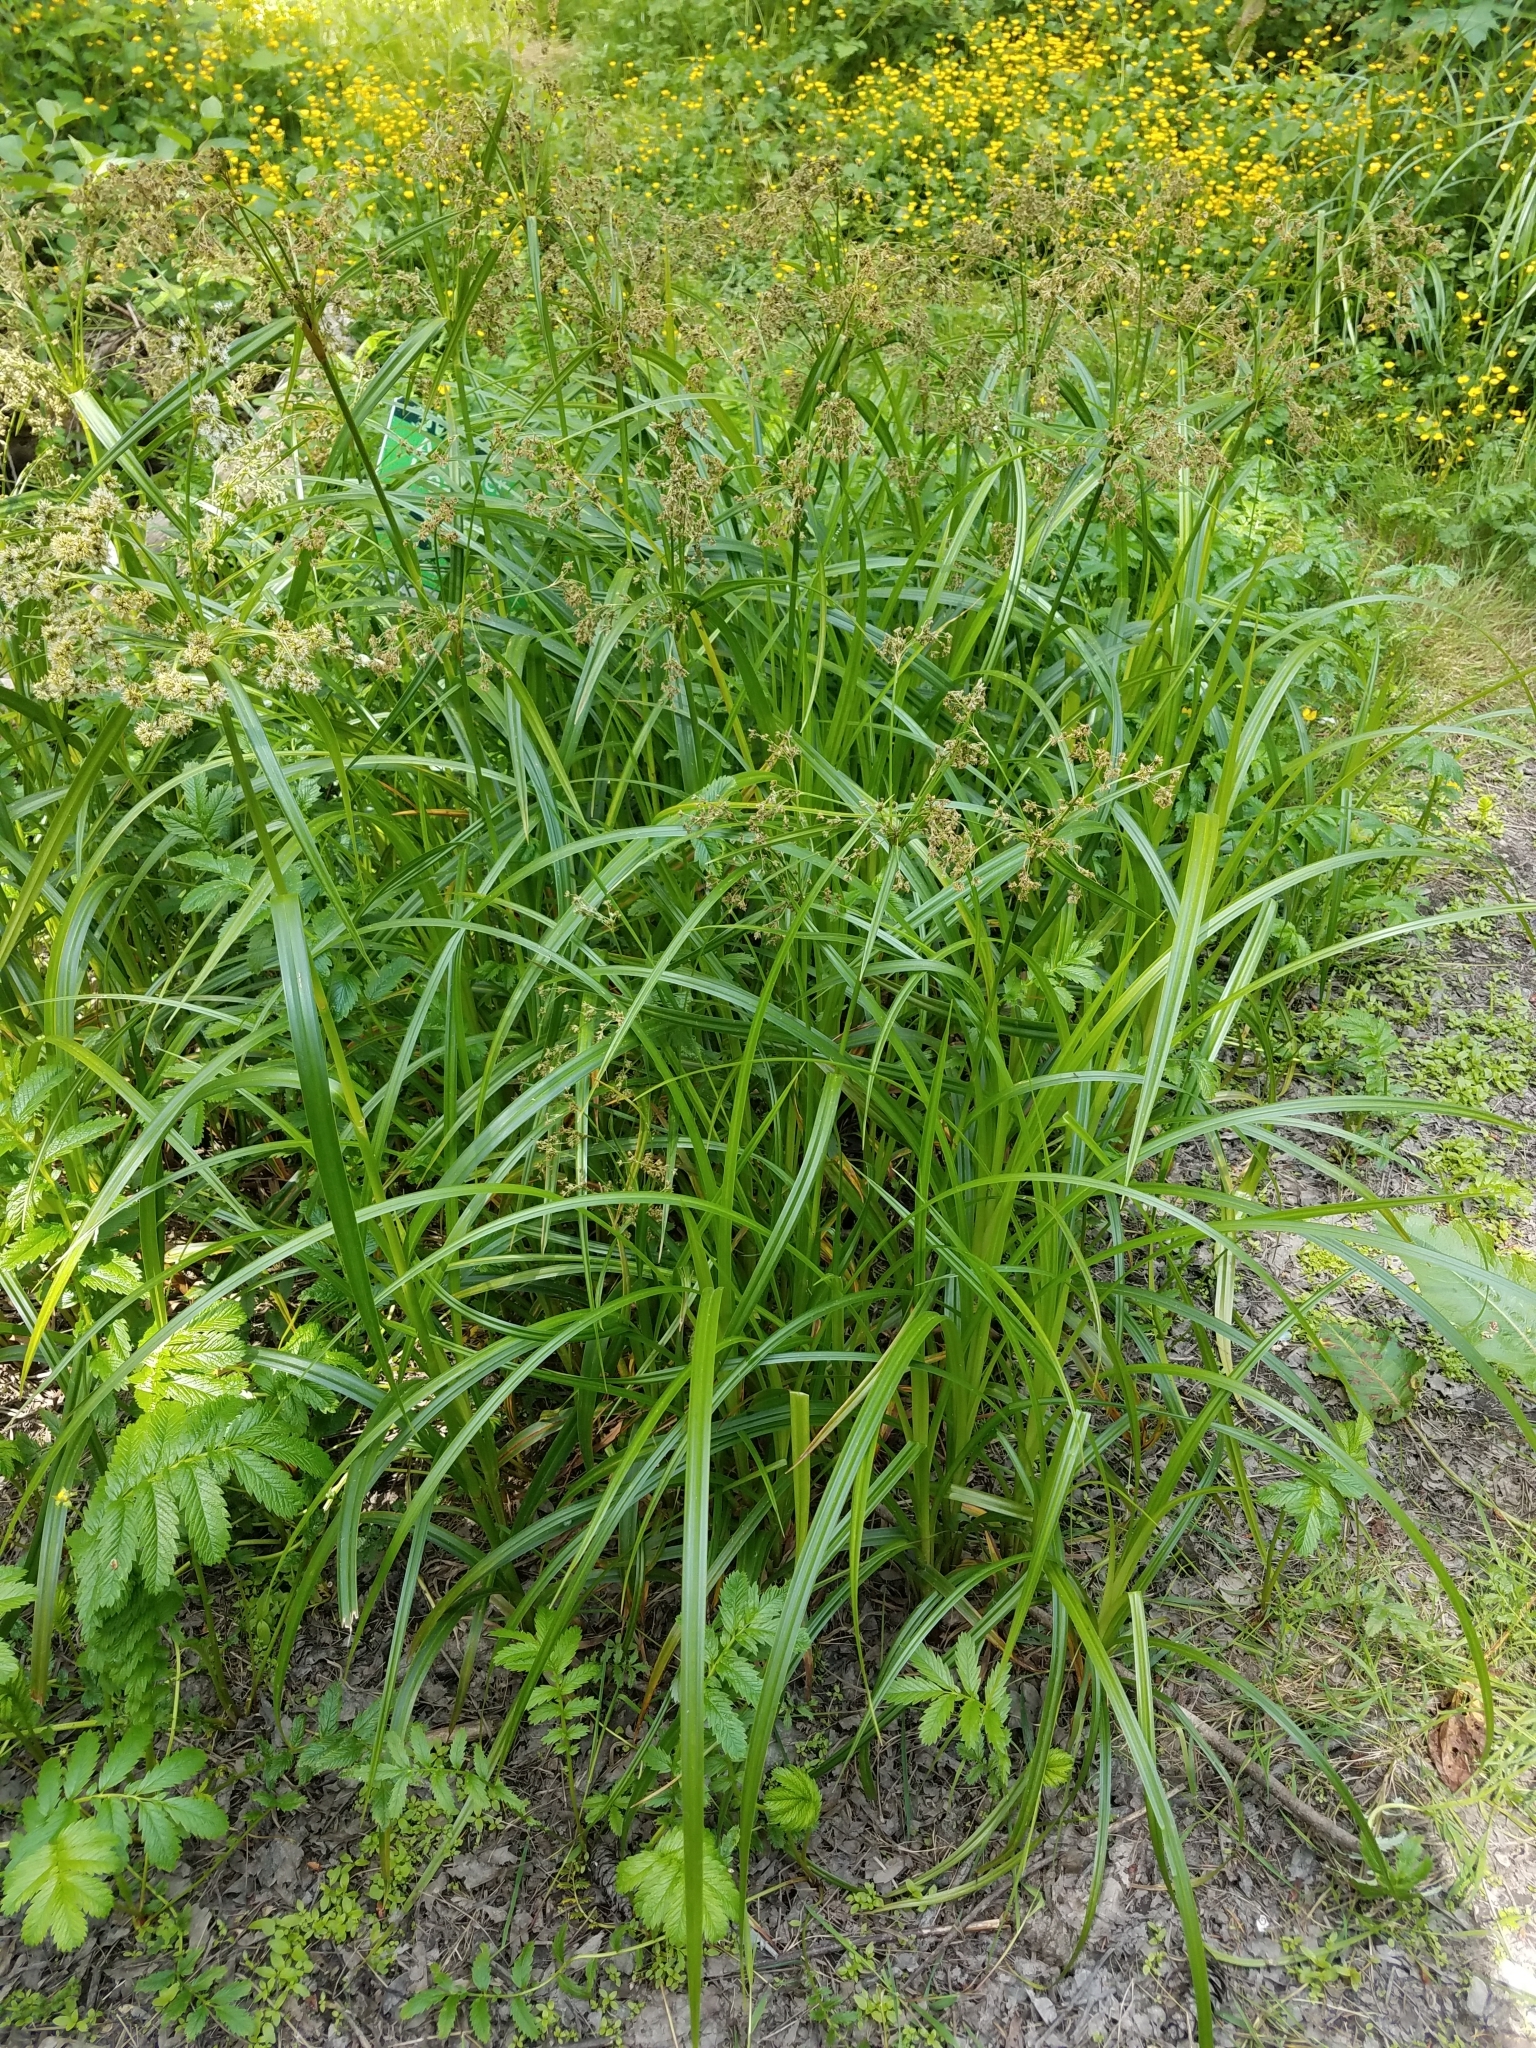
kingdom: Plantae
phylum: Tracheophyta
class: Liliopsida
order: Poales
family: Cyperaceae
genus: Scirpus
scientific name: Scirpus microcarpus
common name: Panicled bulrush
